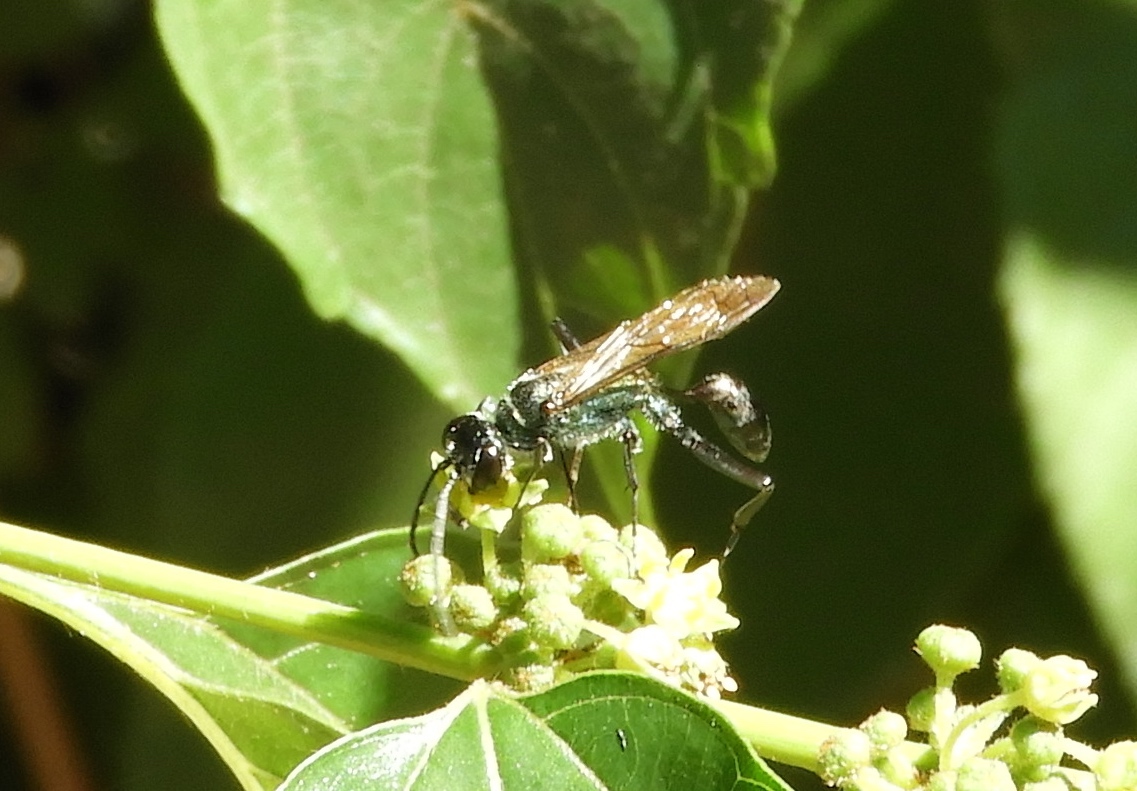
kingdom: Animalia
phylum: Arthropoda
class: Insecta
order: Hymenoptera
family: Sphecidae
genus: Chalybion
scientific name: Chalybion
